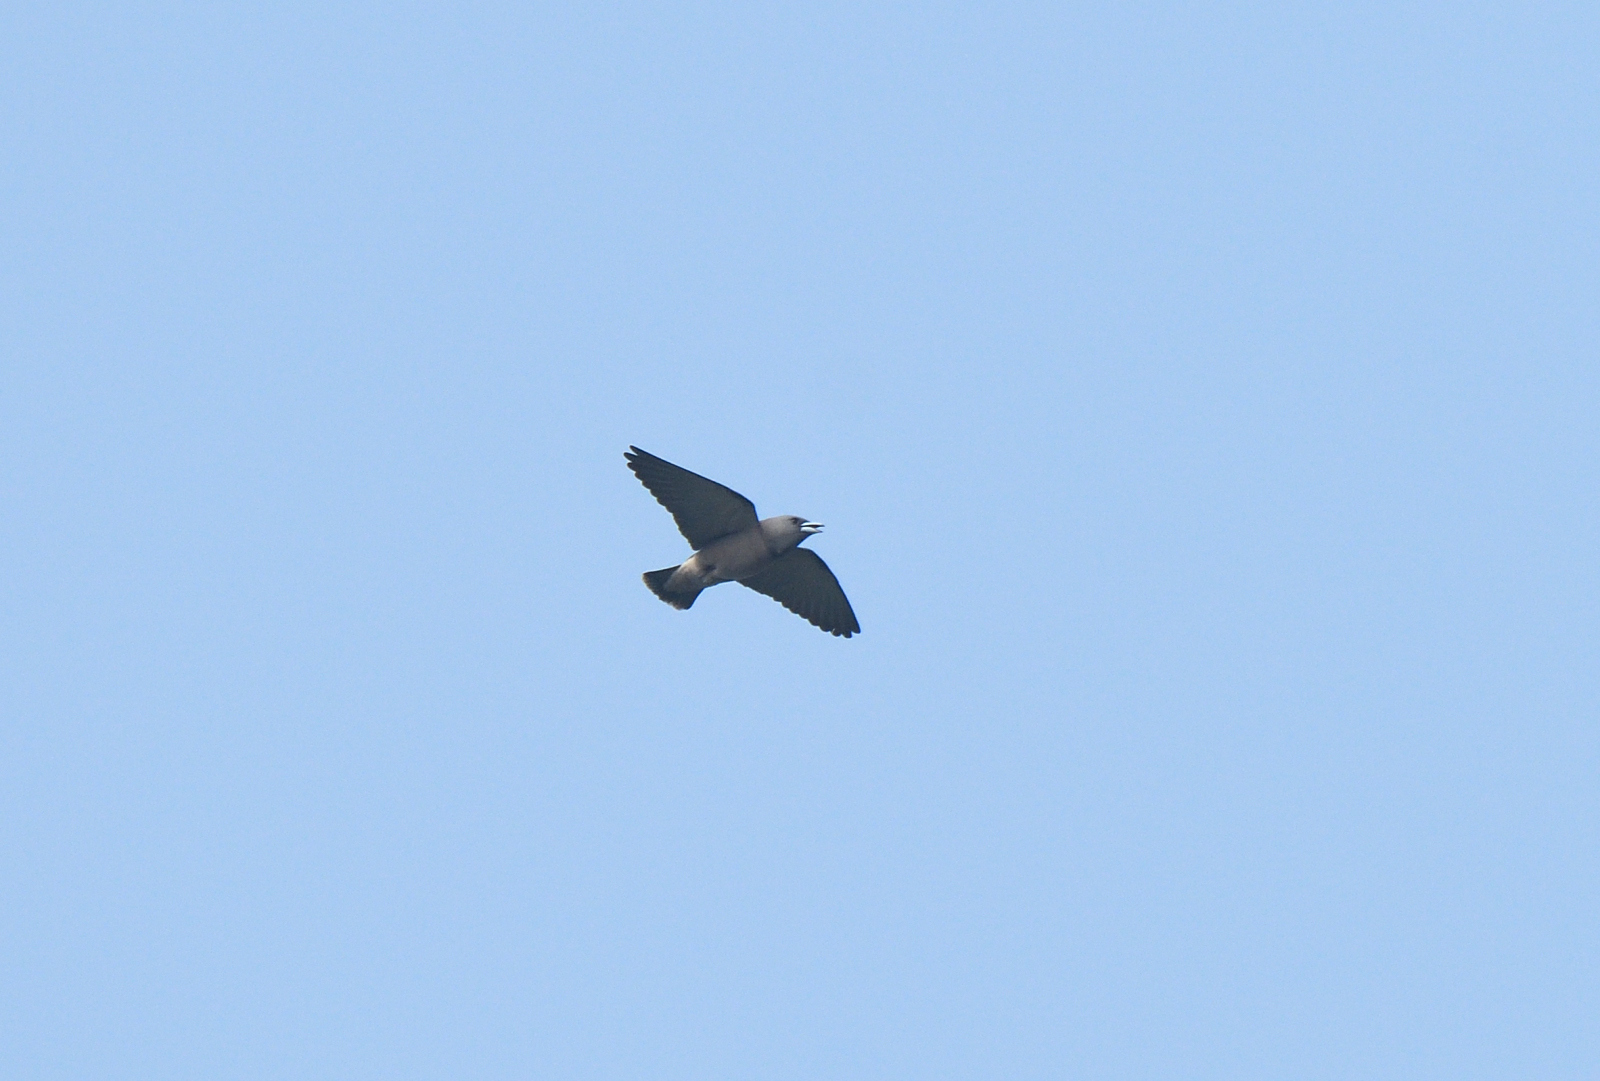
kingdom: Animalia
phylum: Chordata
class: Aves
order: Passeriformes
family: Artamidae
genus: Artamus
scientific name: Artamus fuscus
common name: Ashy woodswallow
